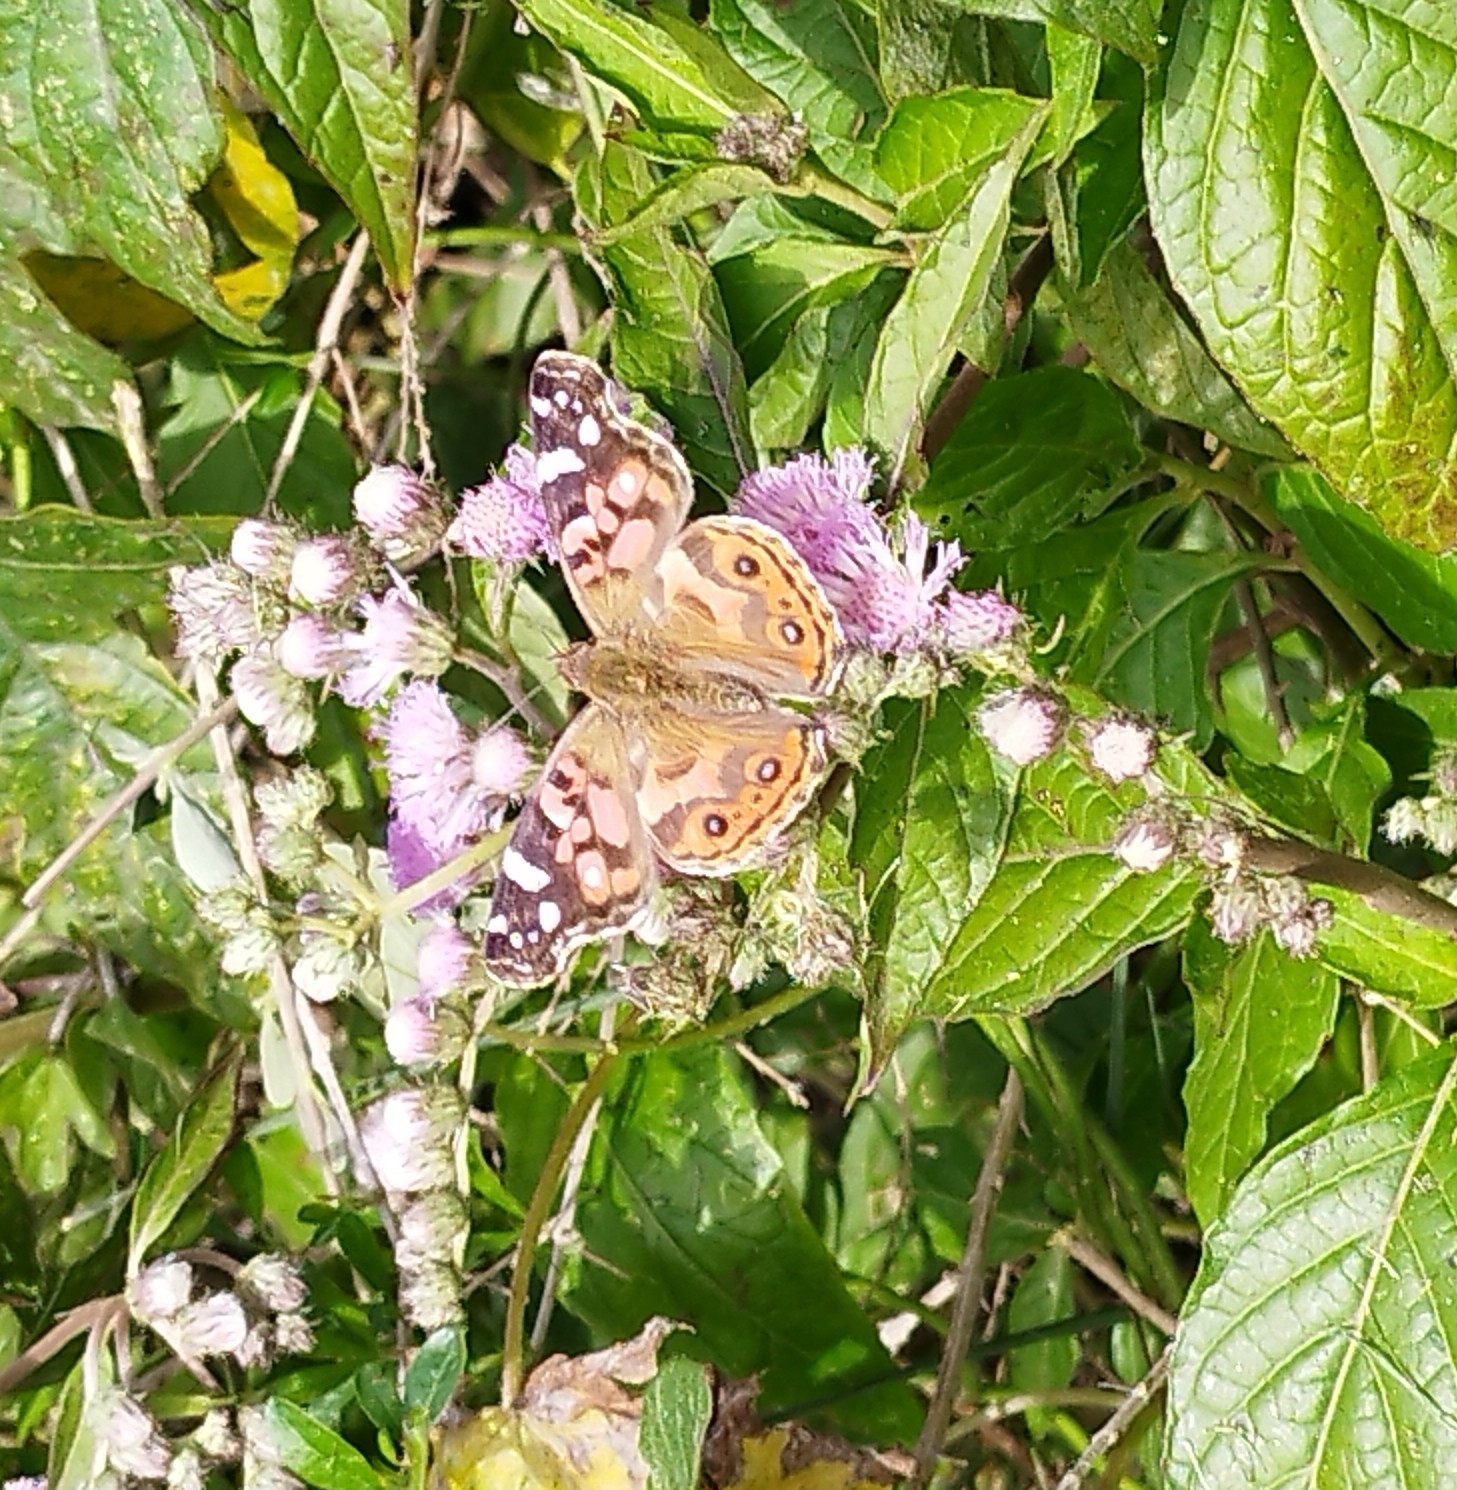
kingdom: Animalia
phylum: Arthropoda
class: Insecta
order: Lepidoptera
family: Nymphalidae
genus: Vanessa
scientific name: Vanessa braziliensis
